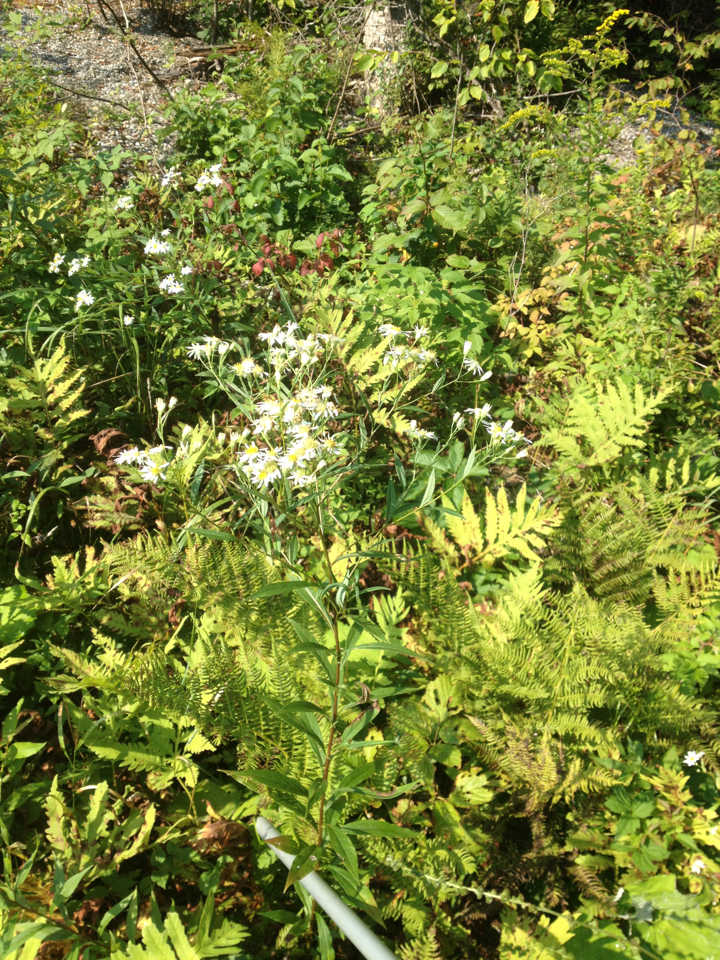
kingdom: Plantae
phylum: Tracheophyta
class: Magnoliopsida
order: Asterales
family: Asteraceae
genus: Doellingeria
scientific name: Doellingeria umbellata
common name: Flat-top white aster
